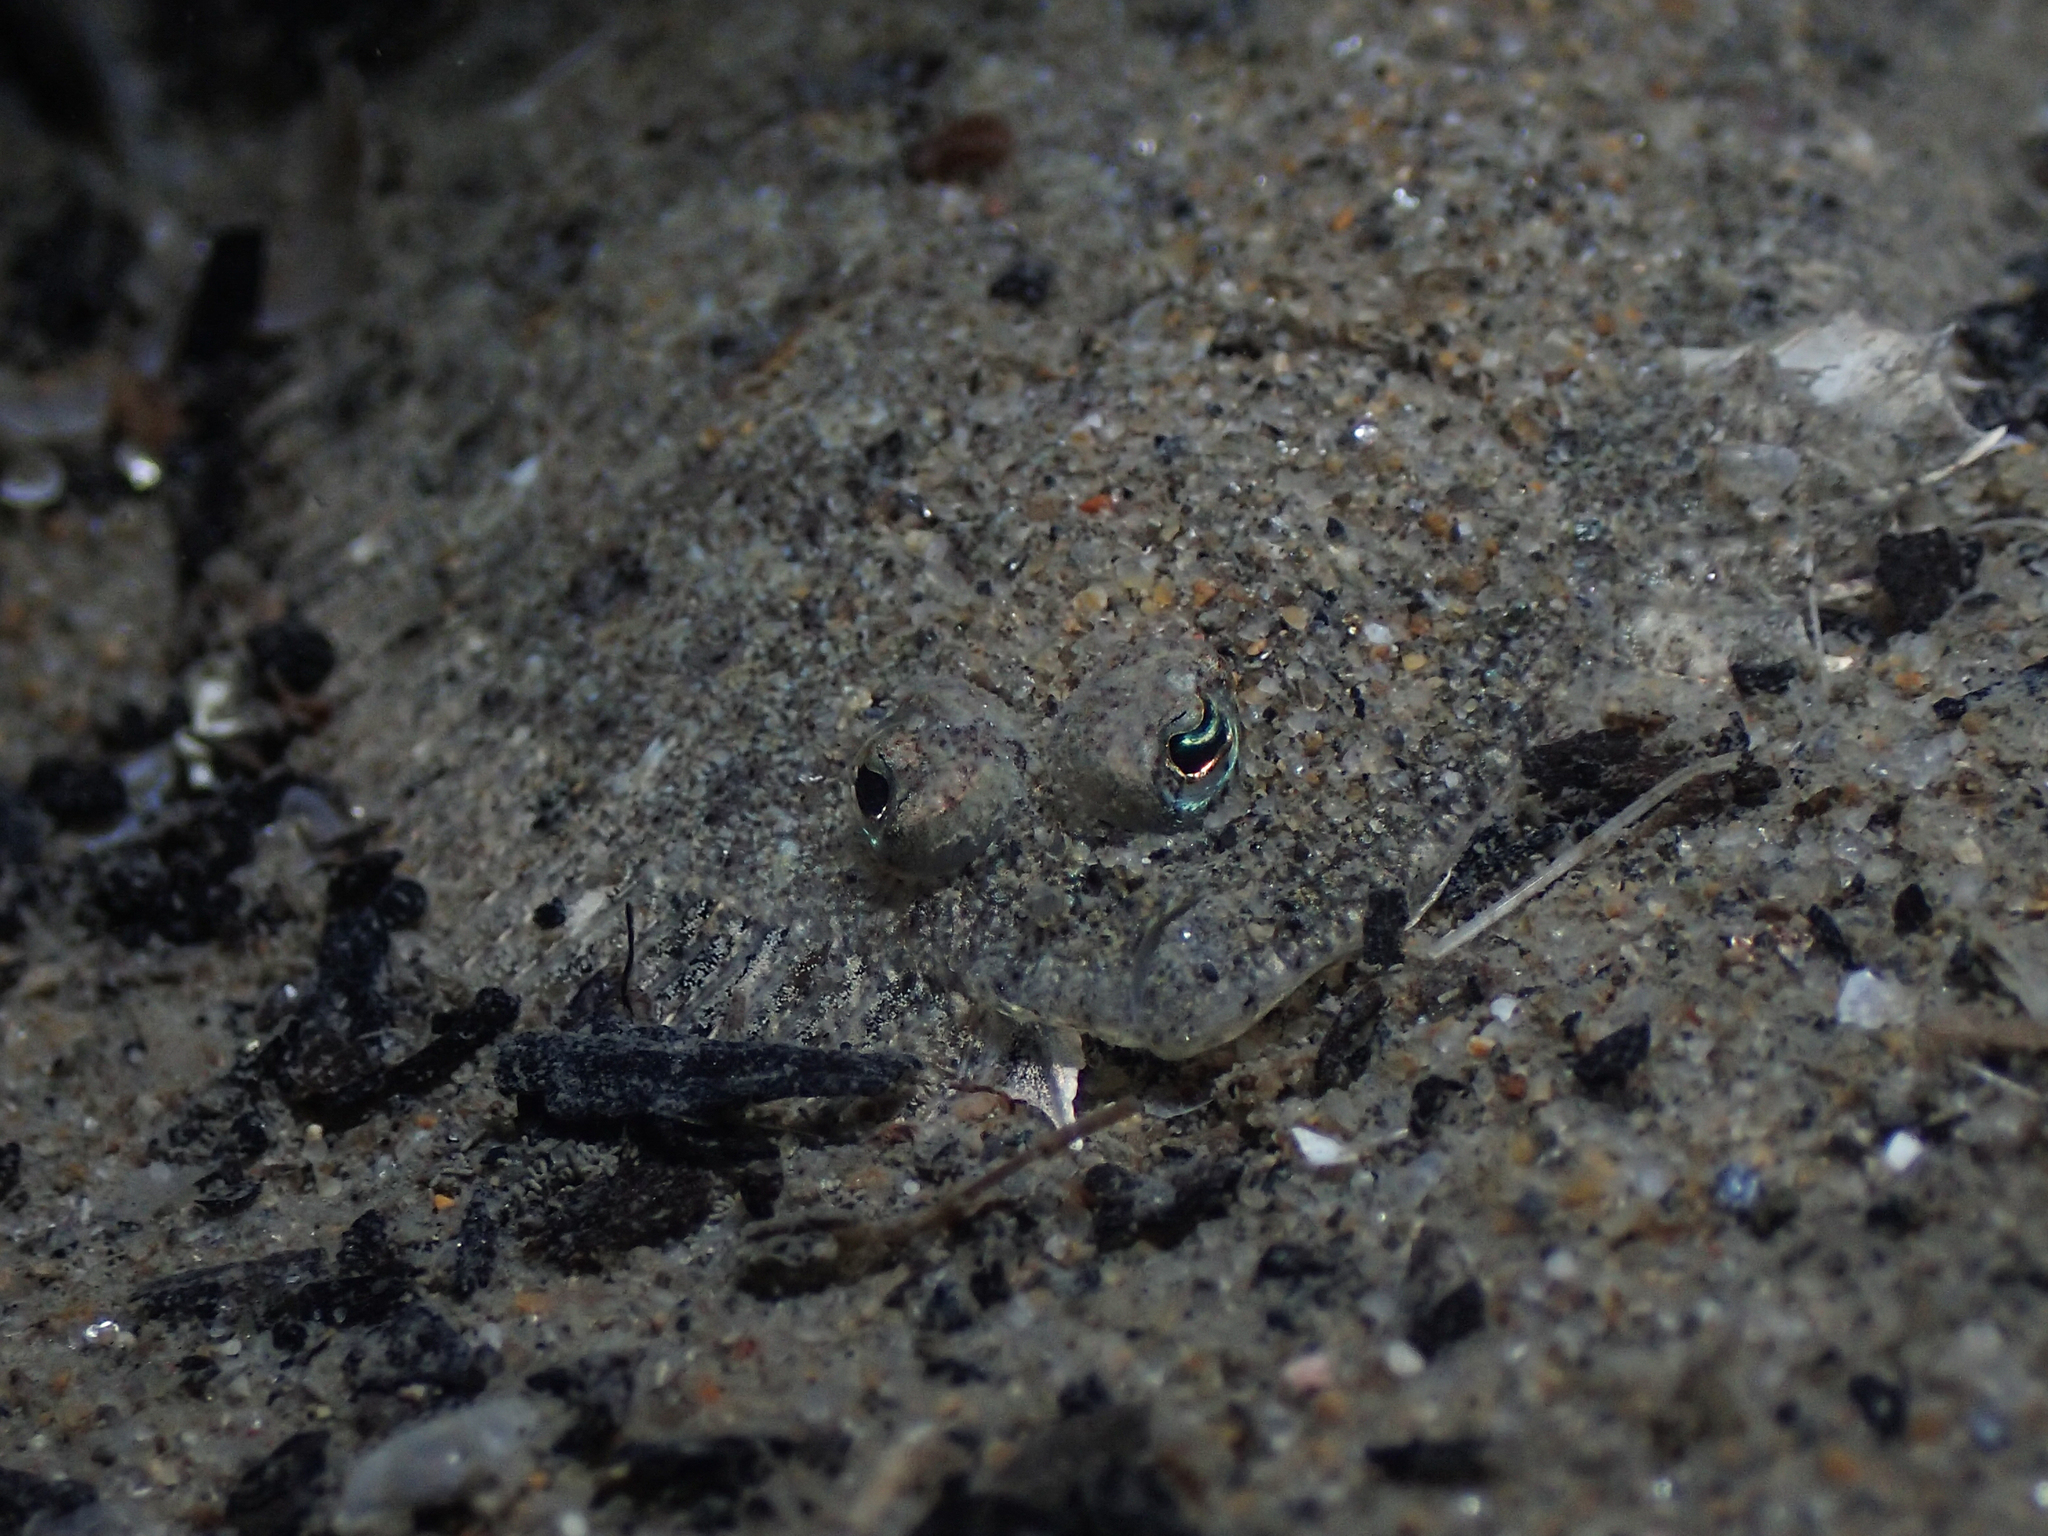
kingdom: Animalia
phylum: Chordata
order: Pleuronectiformes
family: Bothidae
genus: Arnoglossus
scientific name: Arnoglossus thori
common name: Thor's scaldfish
